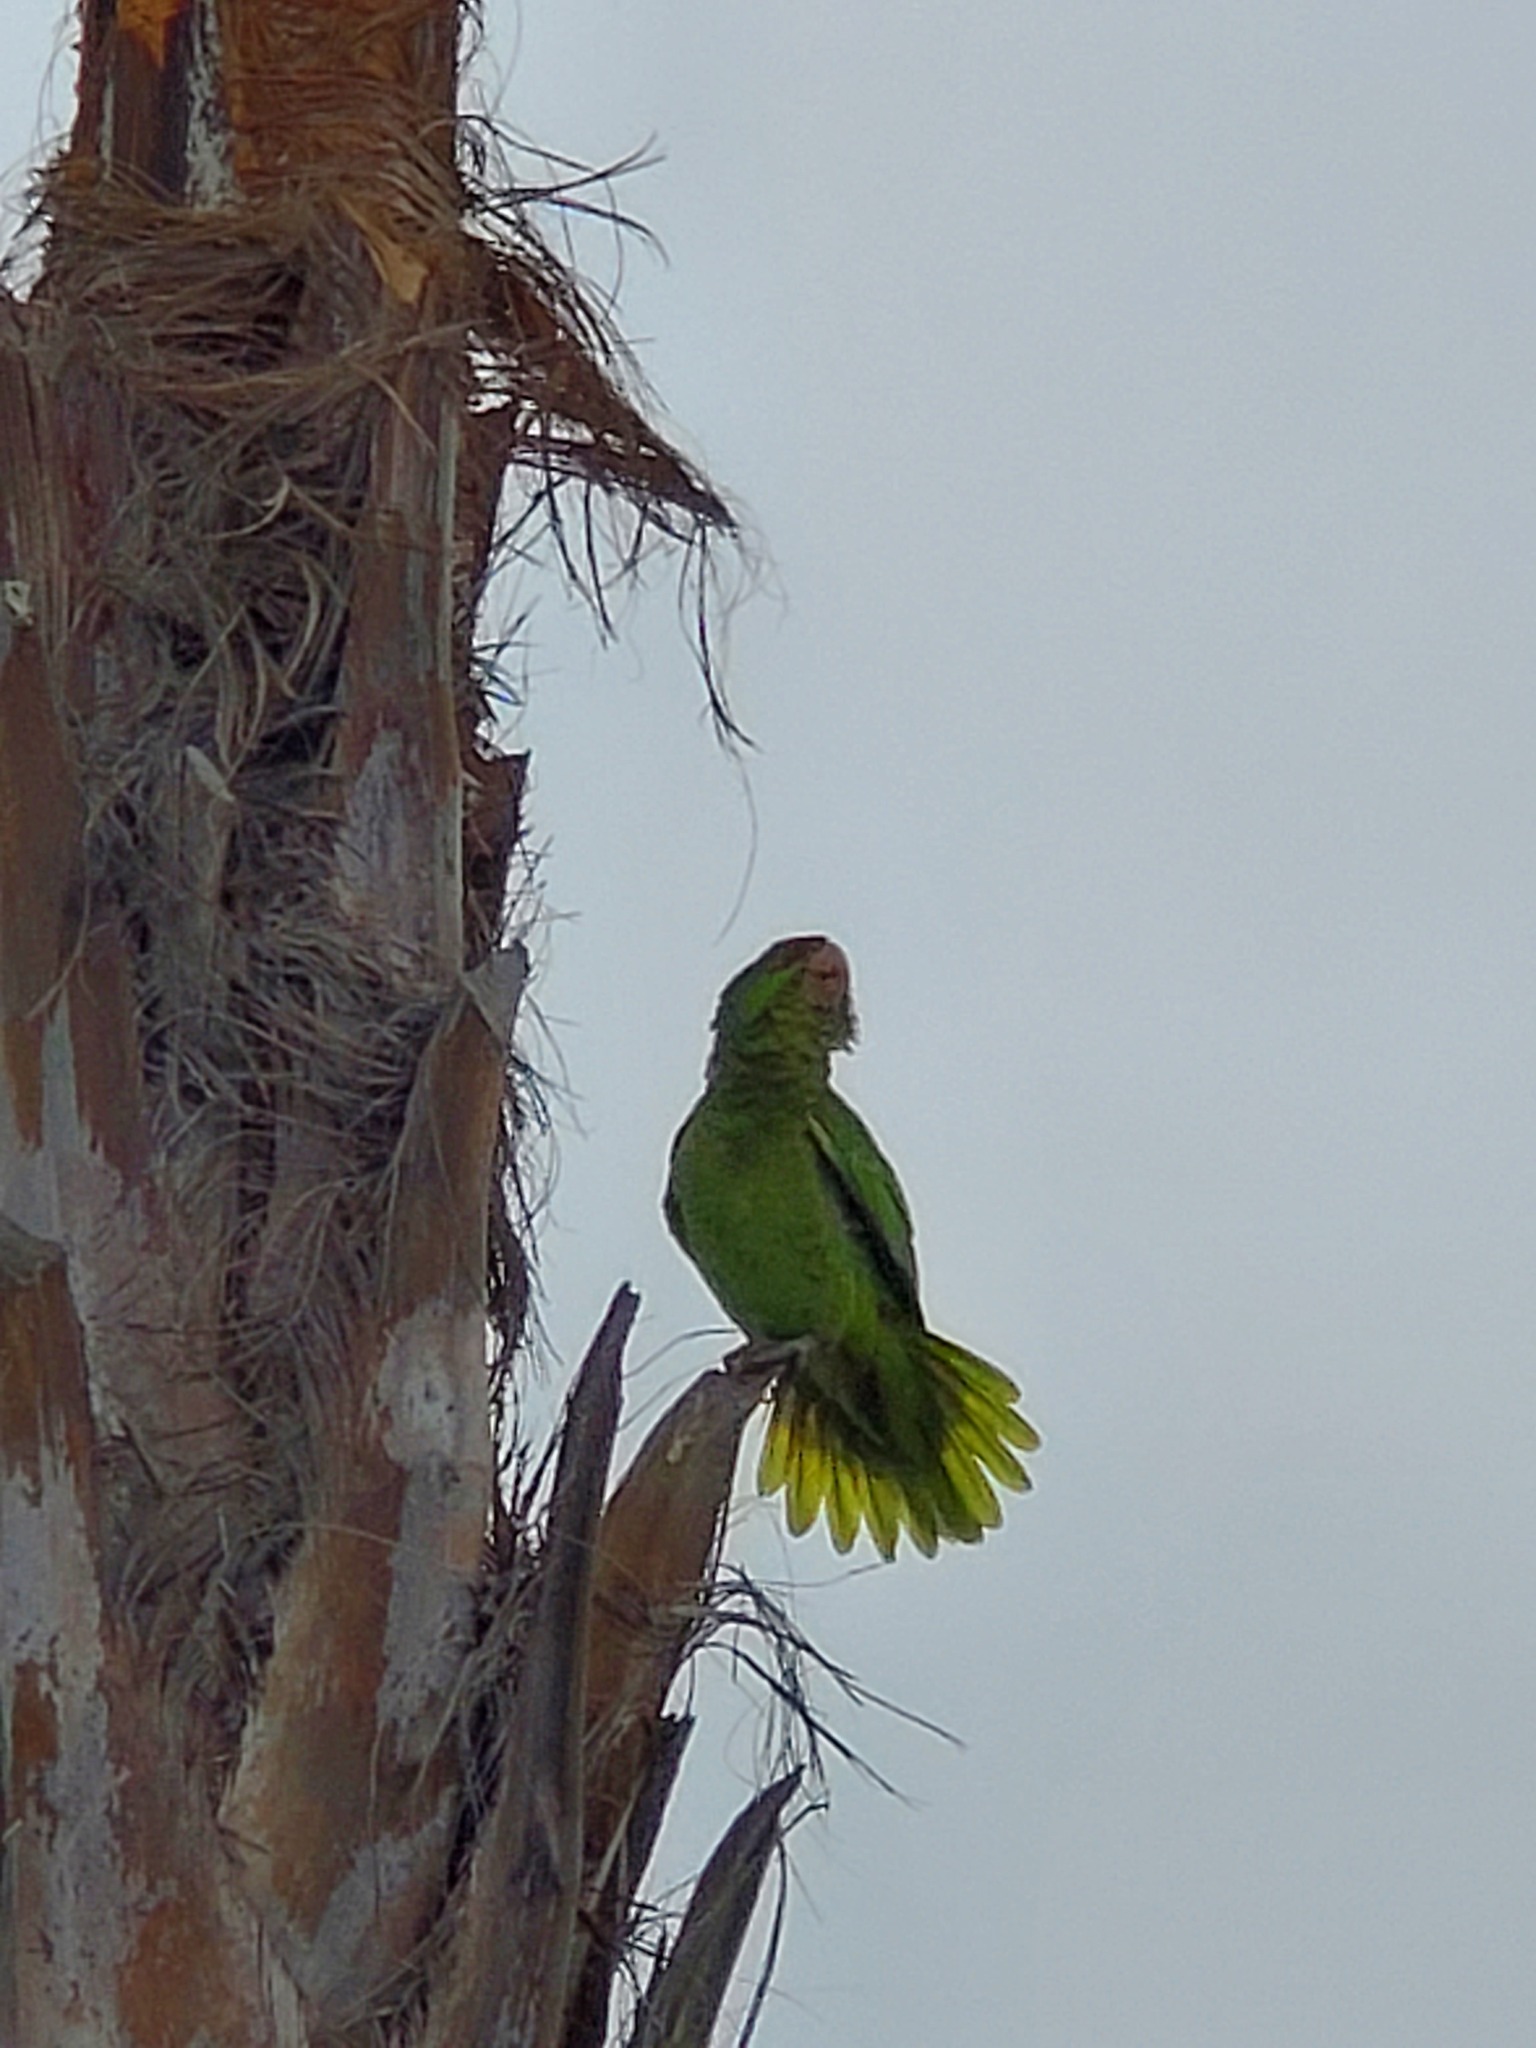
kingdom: Animalia
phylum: Chordata
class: Aves
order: Psittaciformes
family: Psittacidae
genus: Amazona
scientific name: Amazona viridigenalis
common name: Red-crowned amazon
